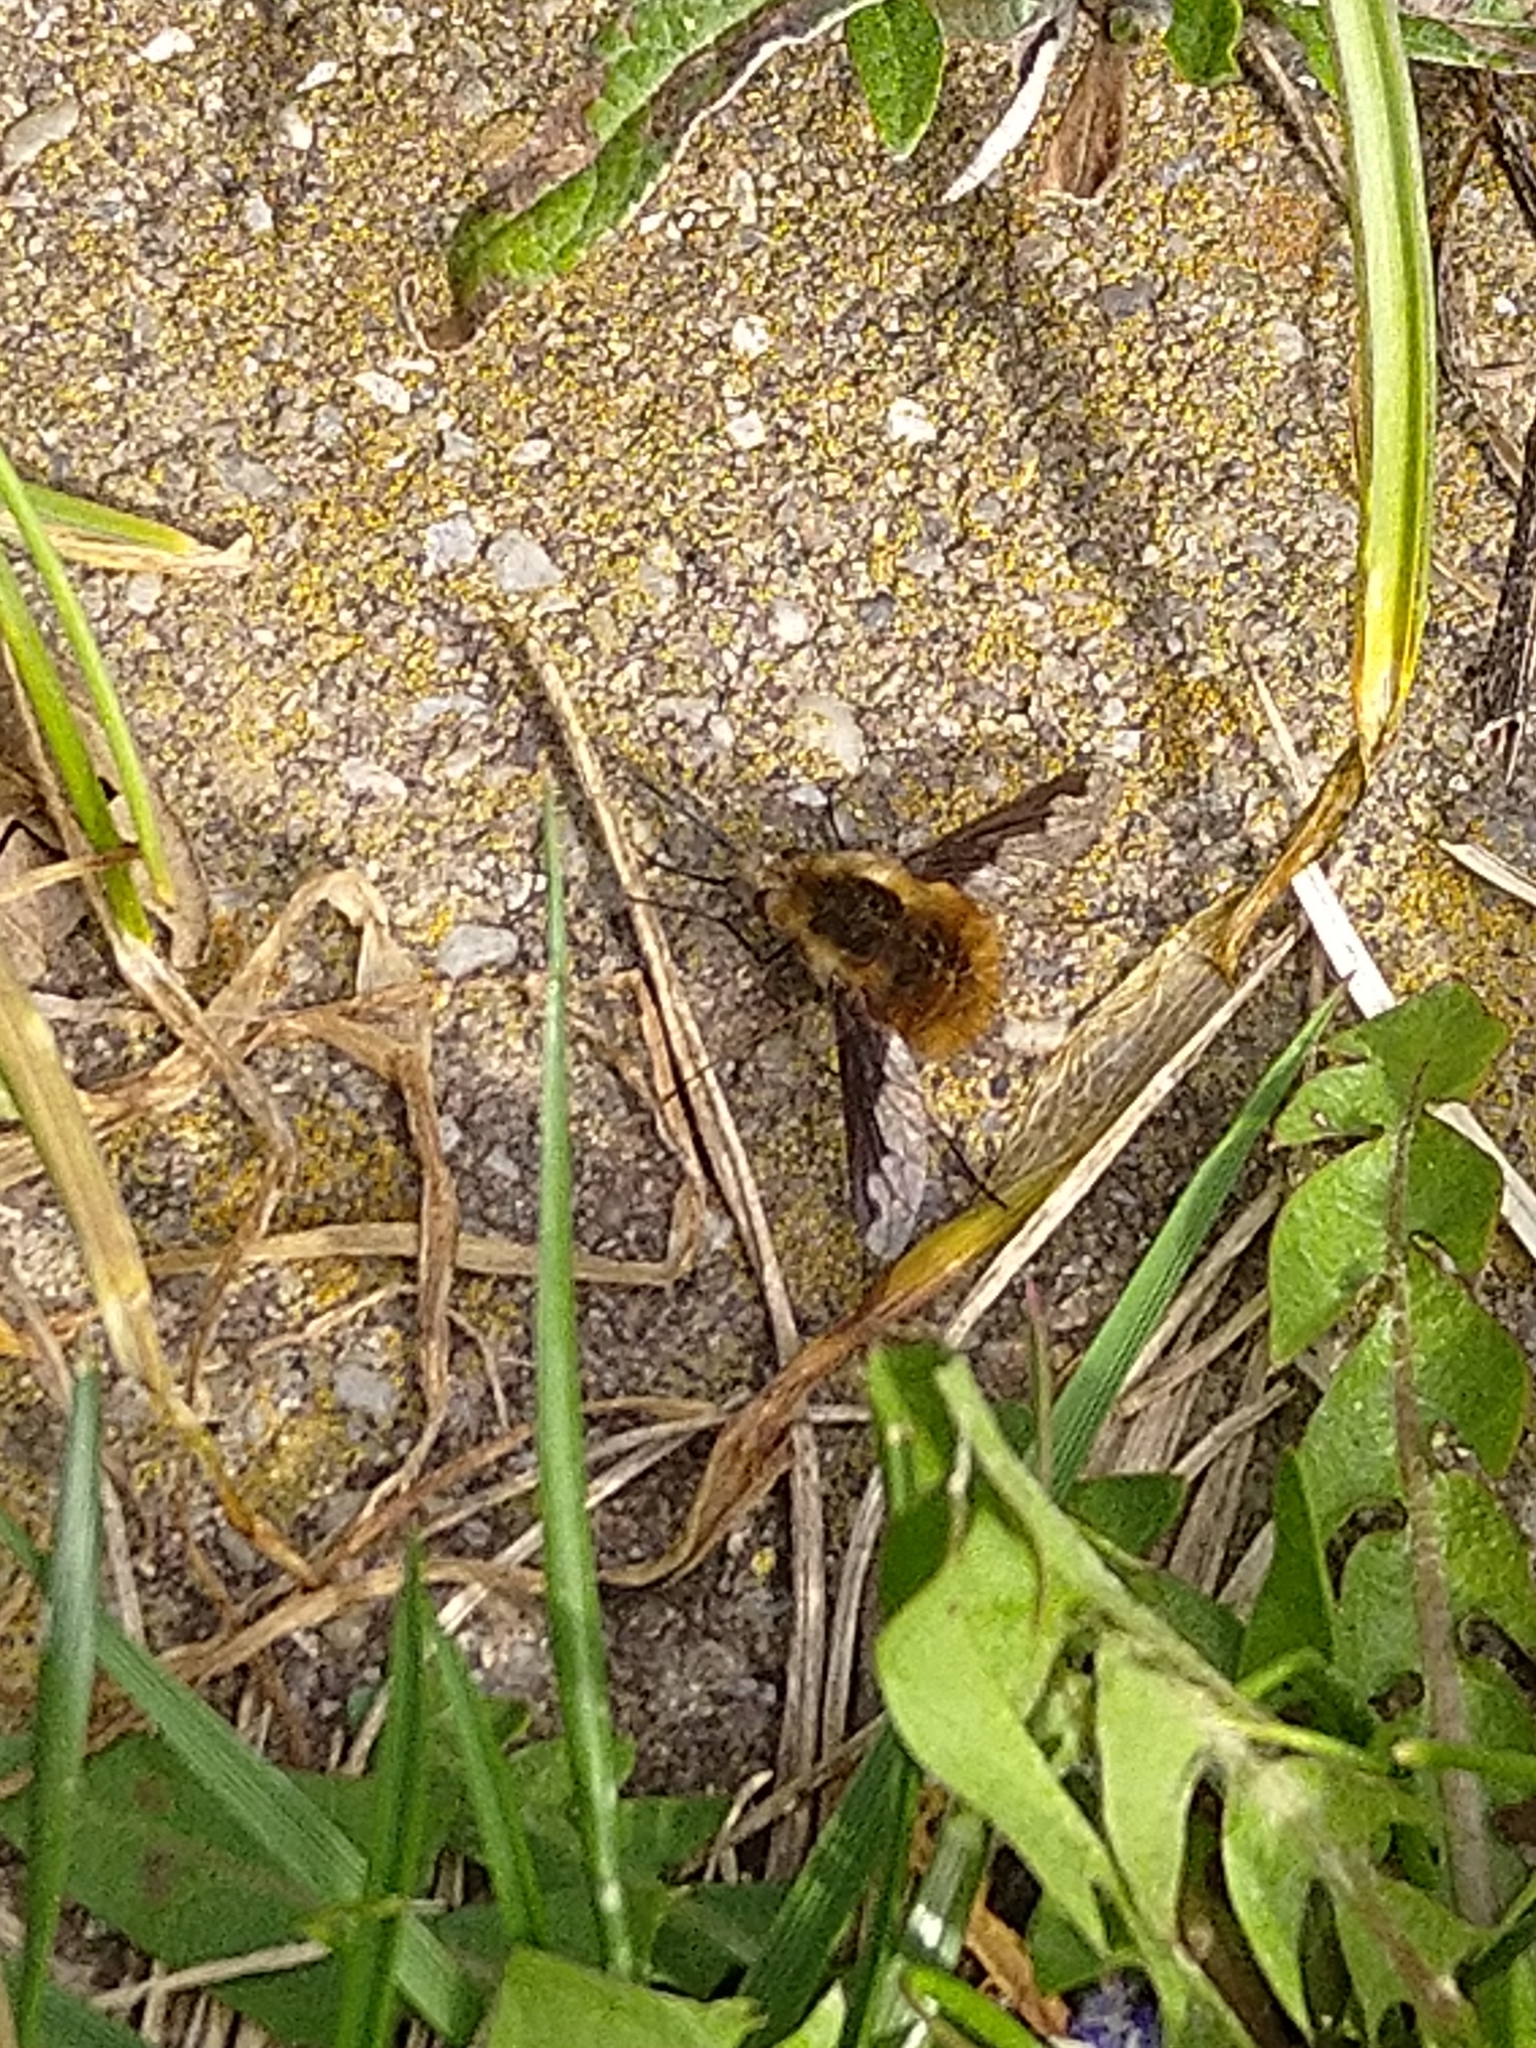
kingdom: Animalia
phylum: Arthropoda
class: Insecta
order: Diptera
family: Bombyliidae
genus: Bombylius
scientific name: Bombylius major
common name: Bee fly
